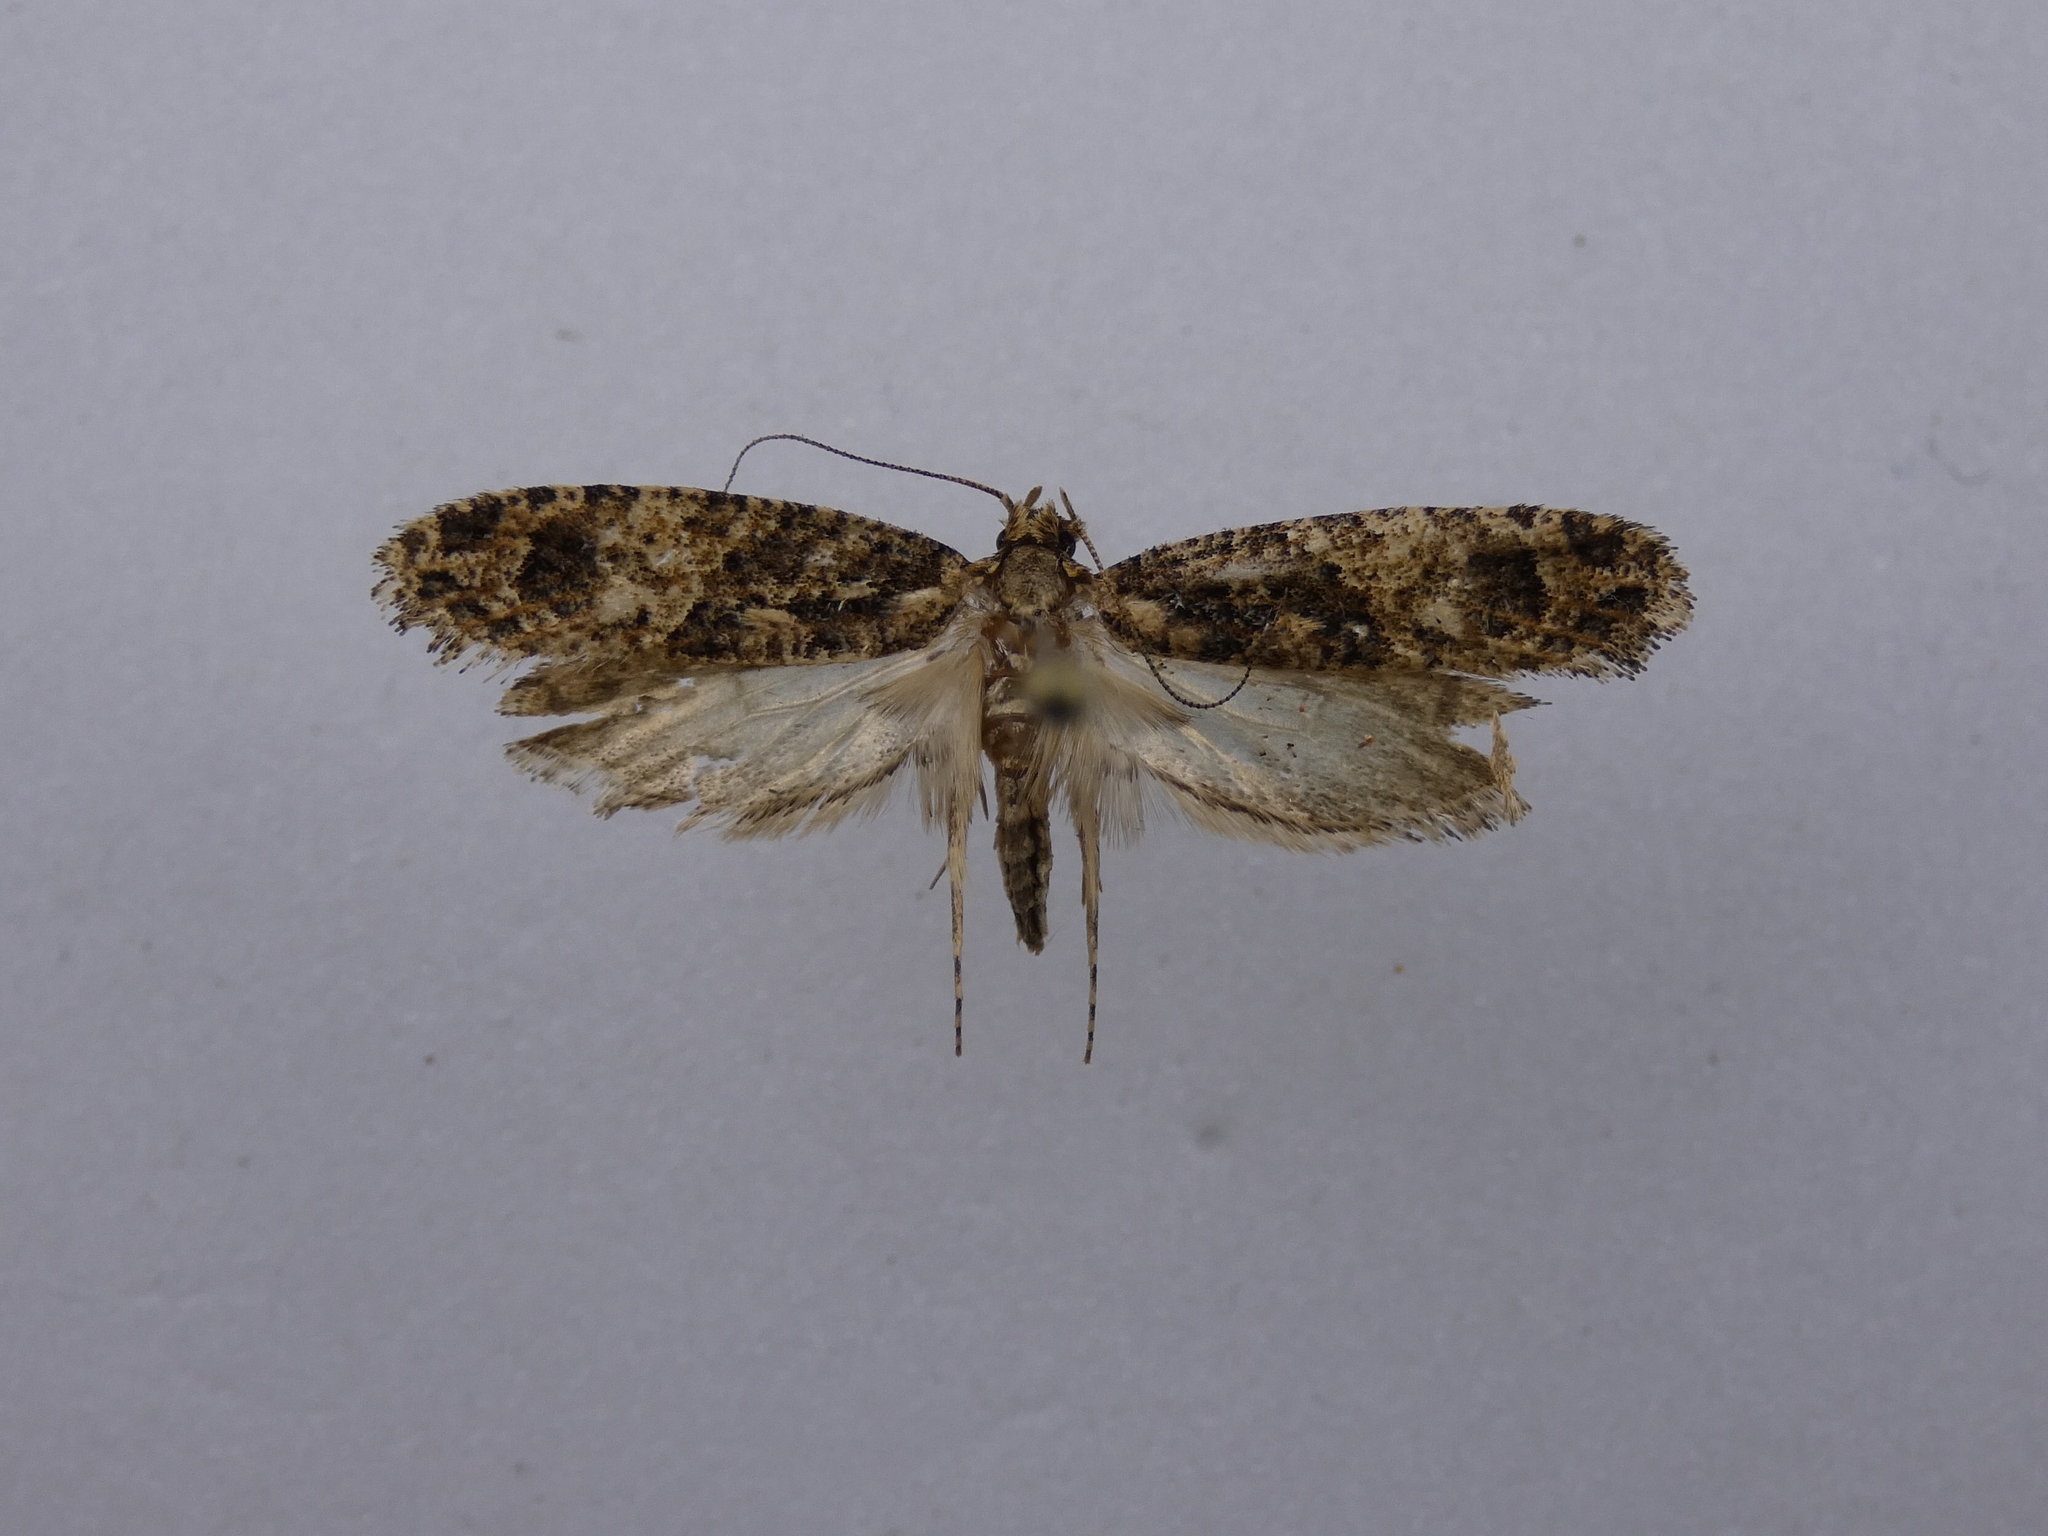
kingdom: Animalia
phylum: Arthropoda
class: Insecta
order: Lepidoptera
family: Tineidae
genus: Lysiphragma
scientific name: Lysiphragma epixyla
